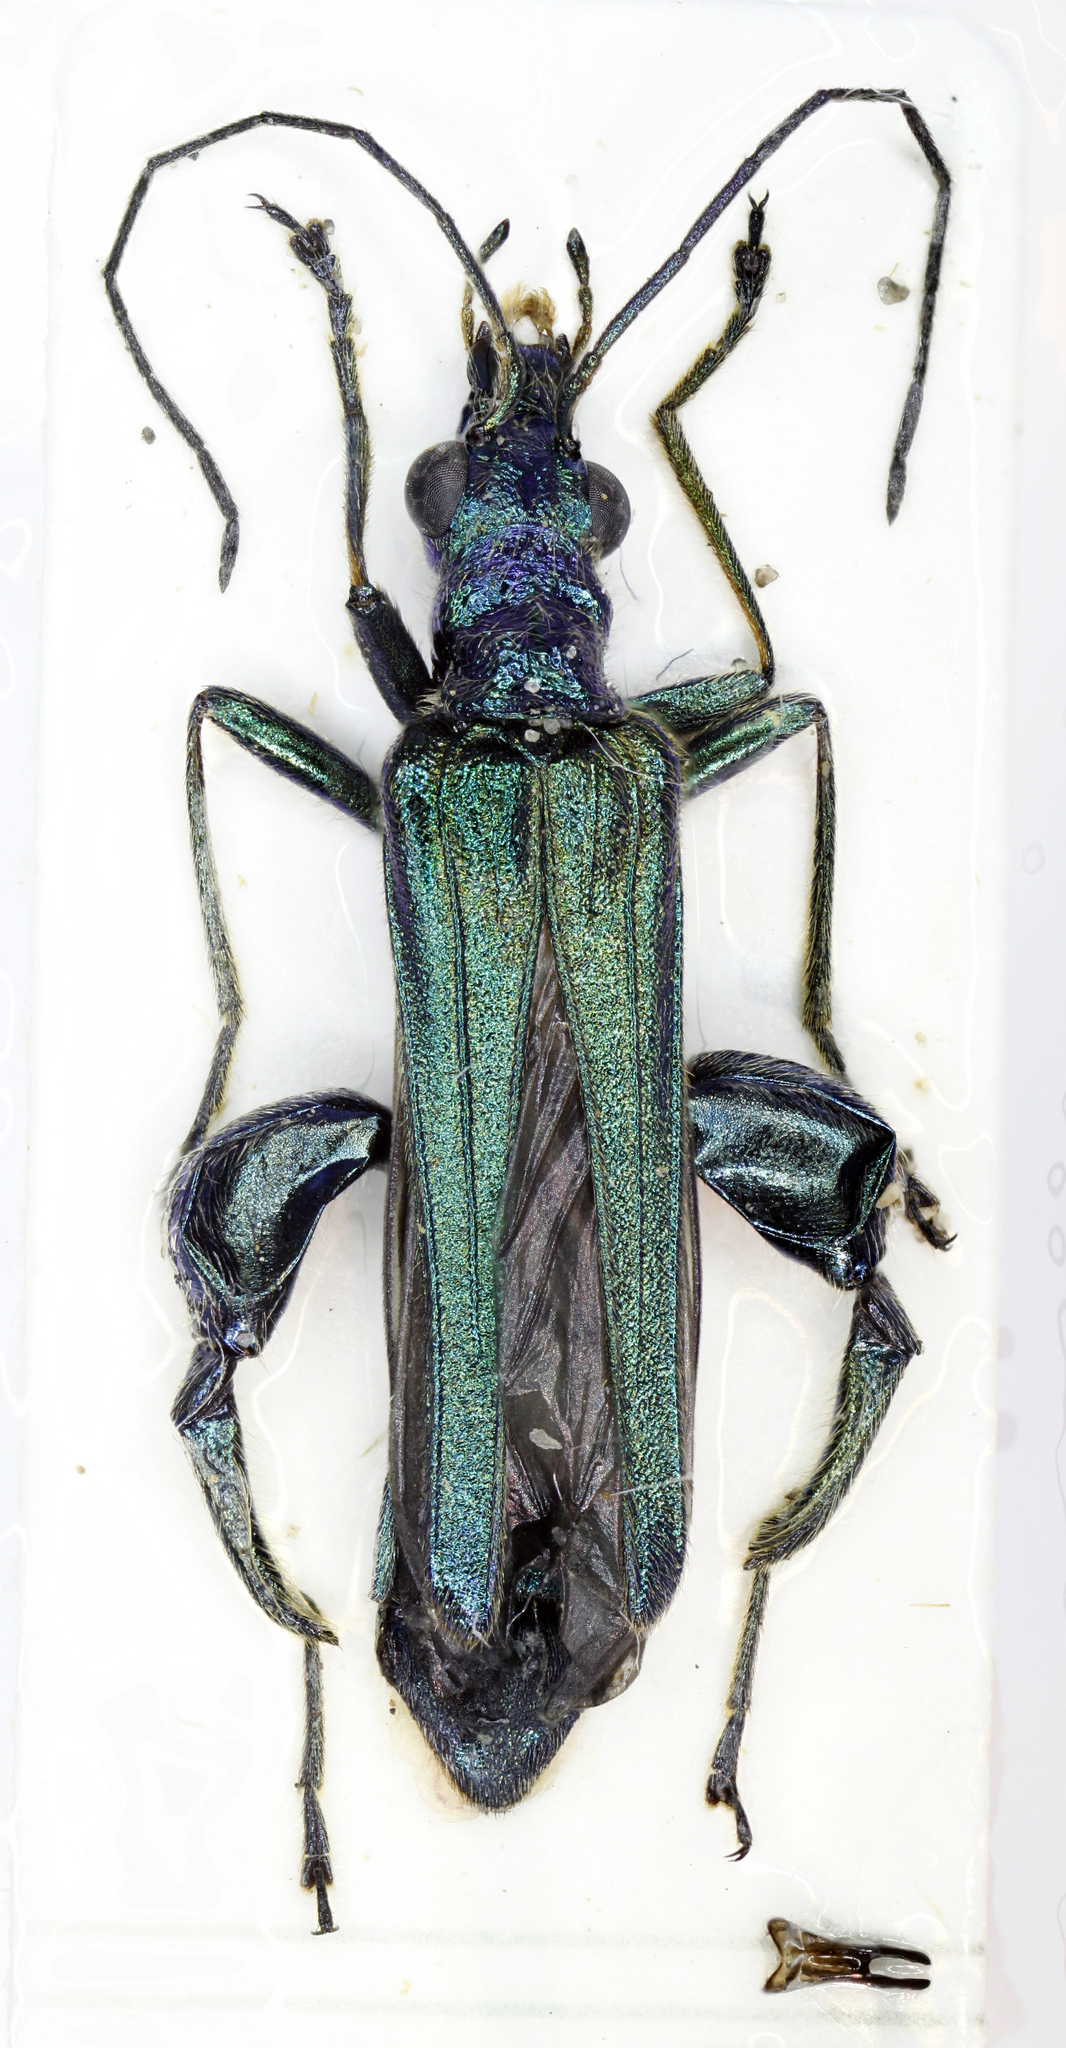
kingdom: Animalia
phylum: Arthropoda
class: Insecta
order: Coleoptera
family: Oedemeridae
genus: Oedemera
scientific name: Oedemera nobilis
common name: Swollen-thighed beetle
